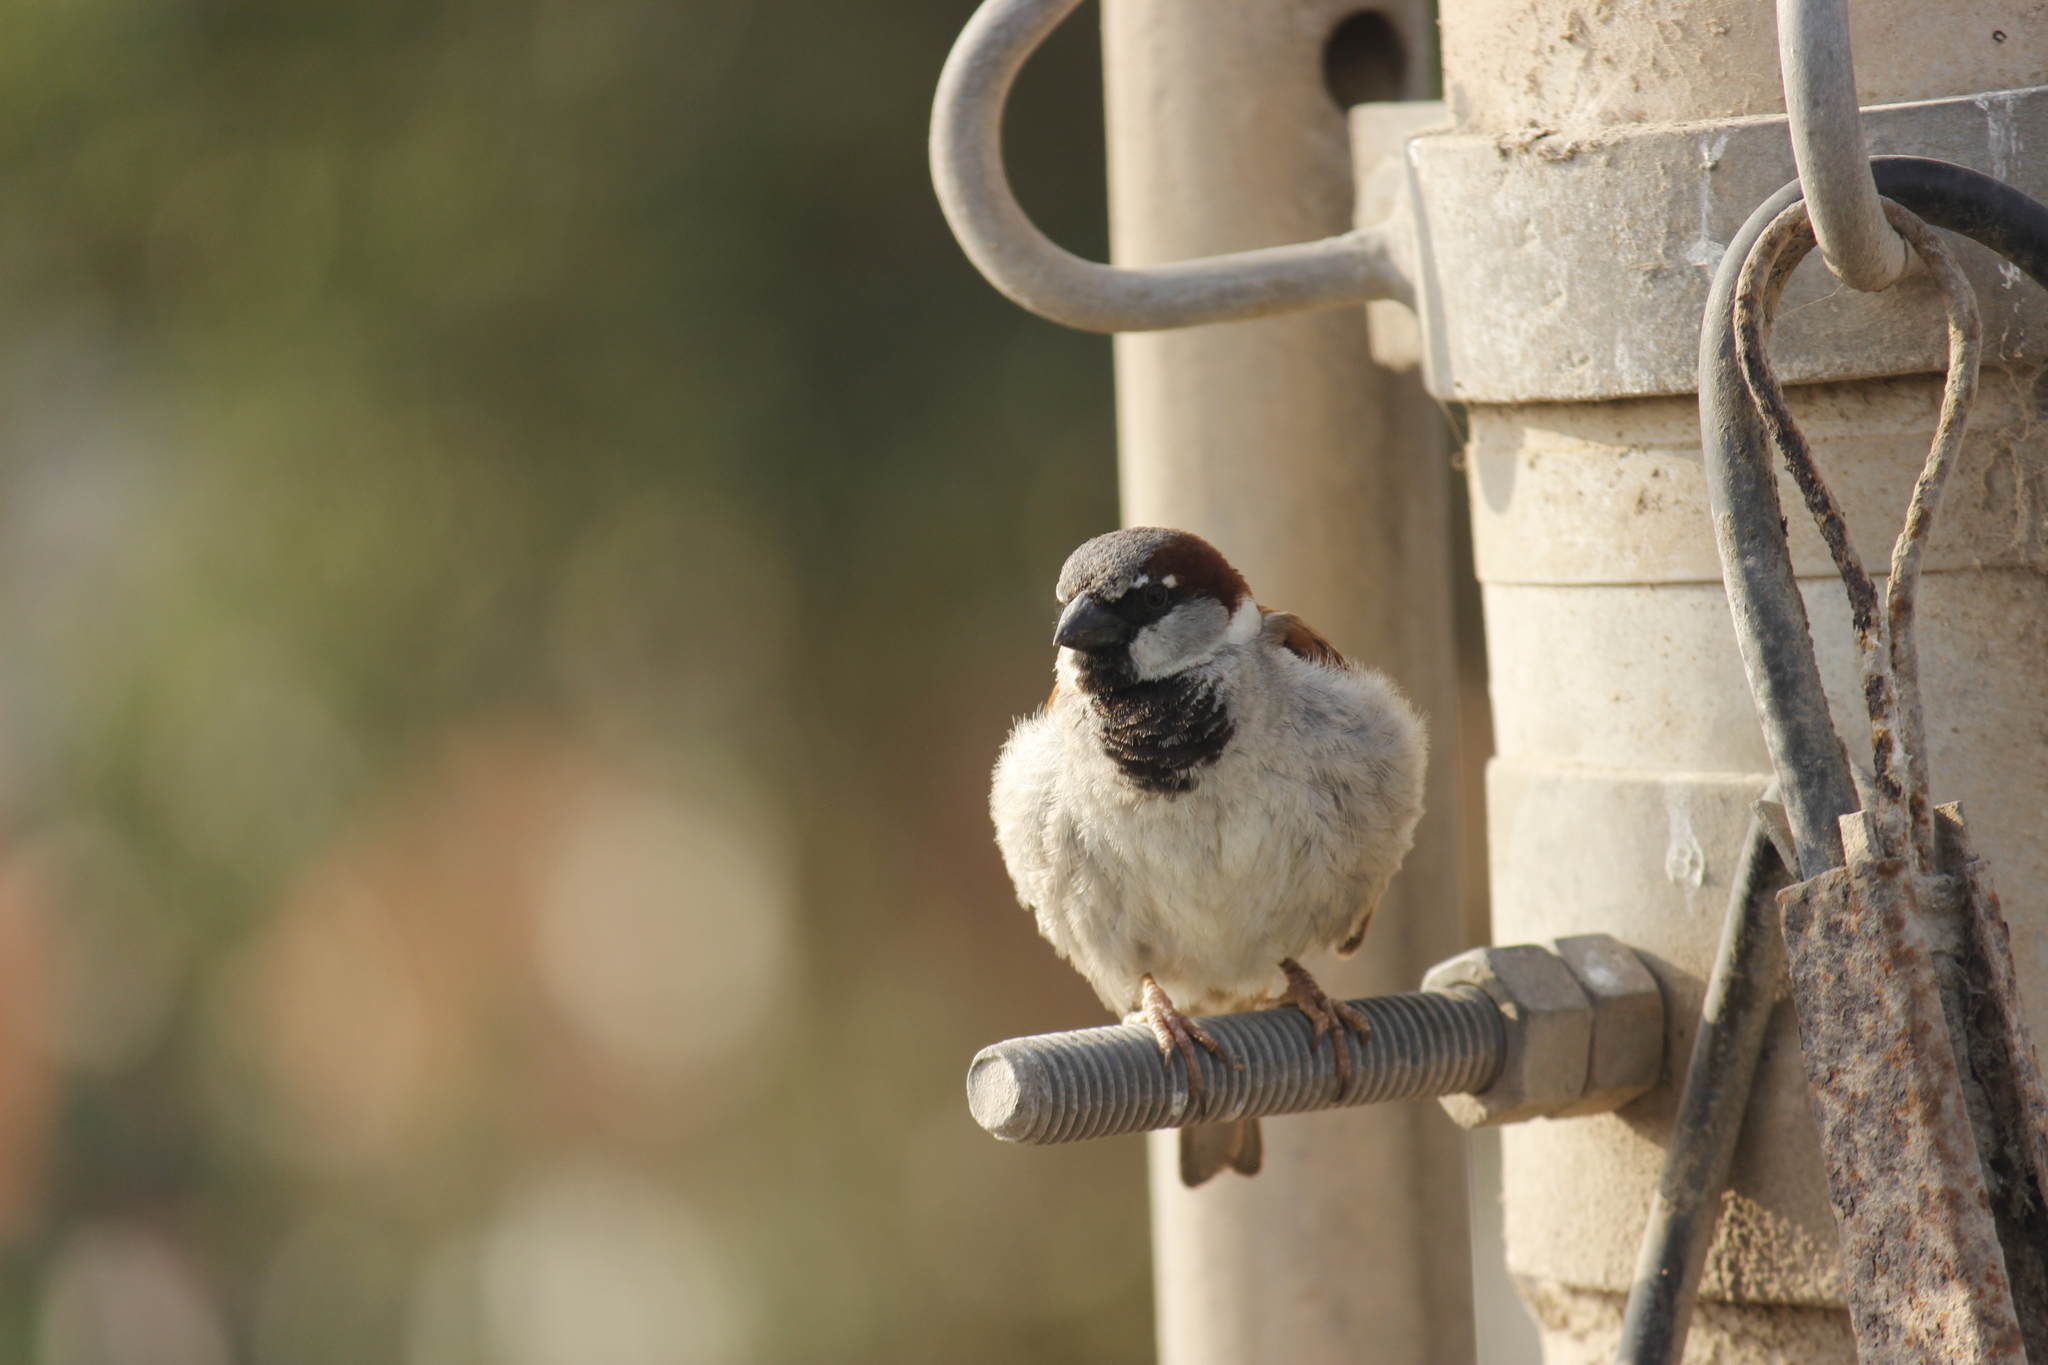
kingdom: Animalia
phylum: Chordata
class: Aves
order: Passeriformes
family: Passeridae
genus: Passer
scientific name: Passer domesticus
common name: House sparrow
